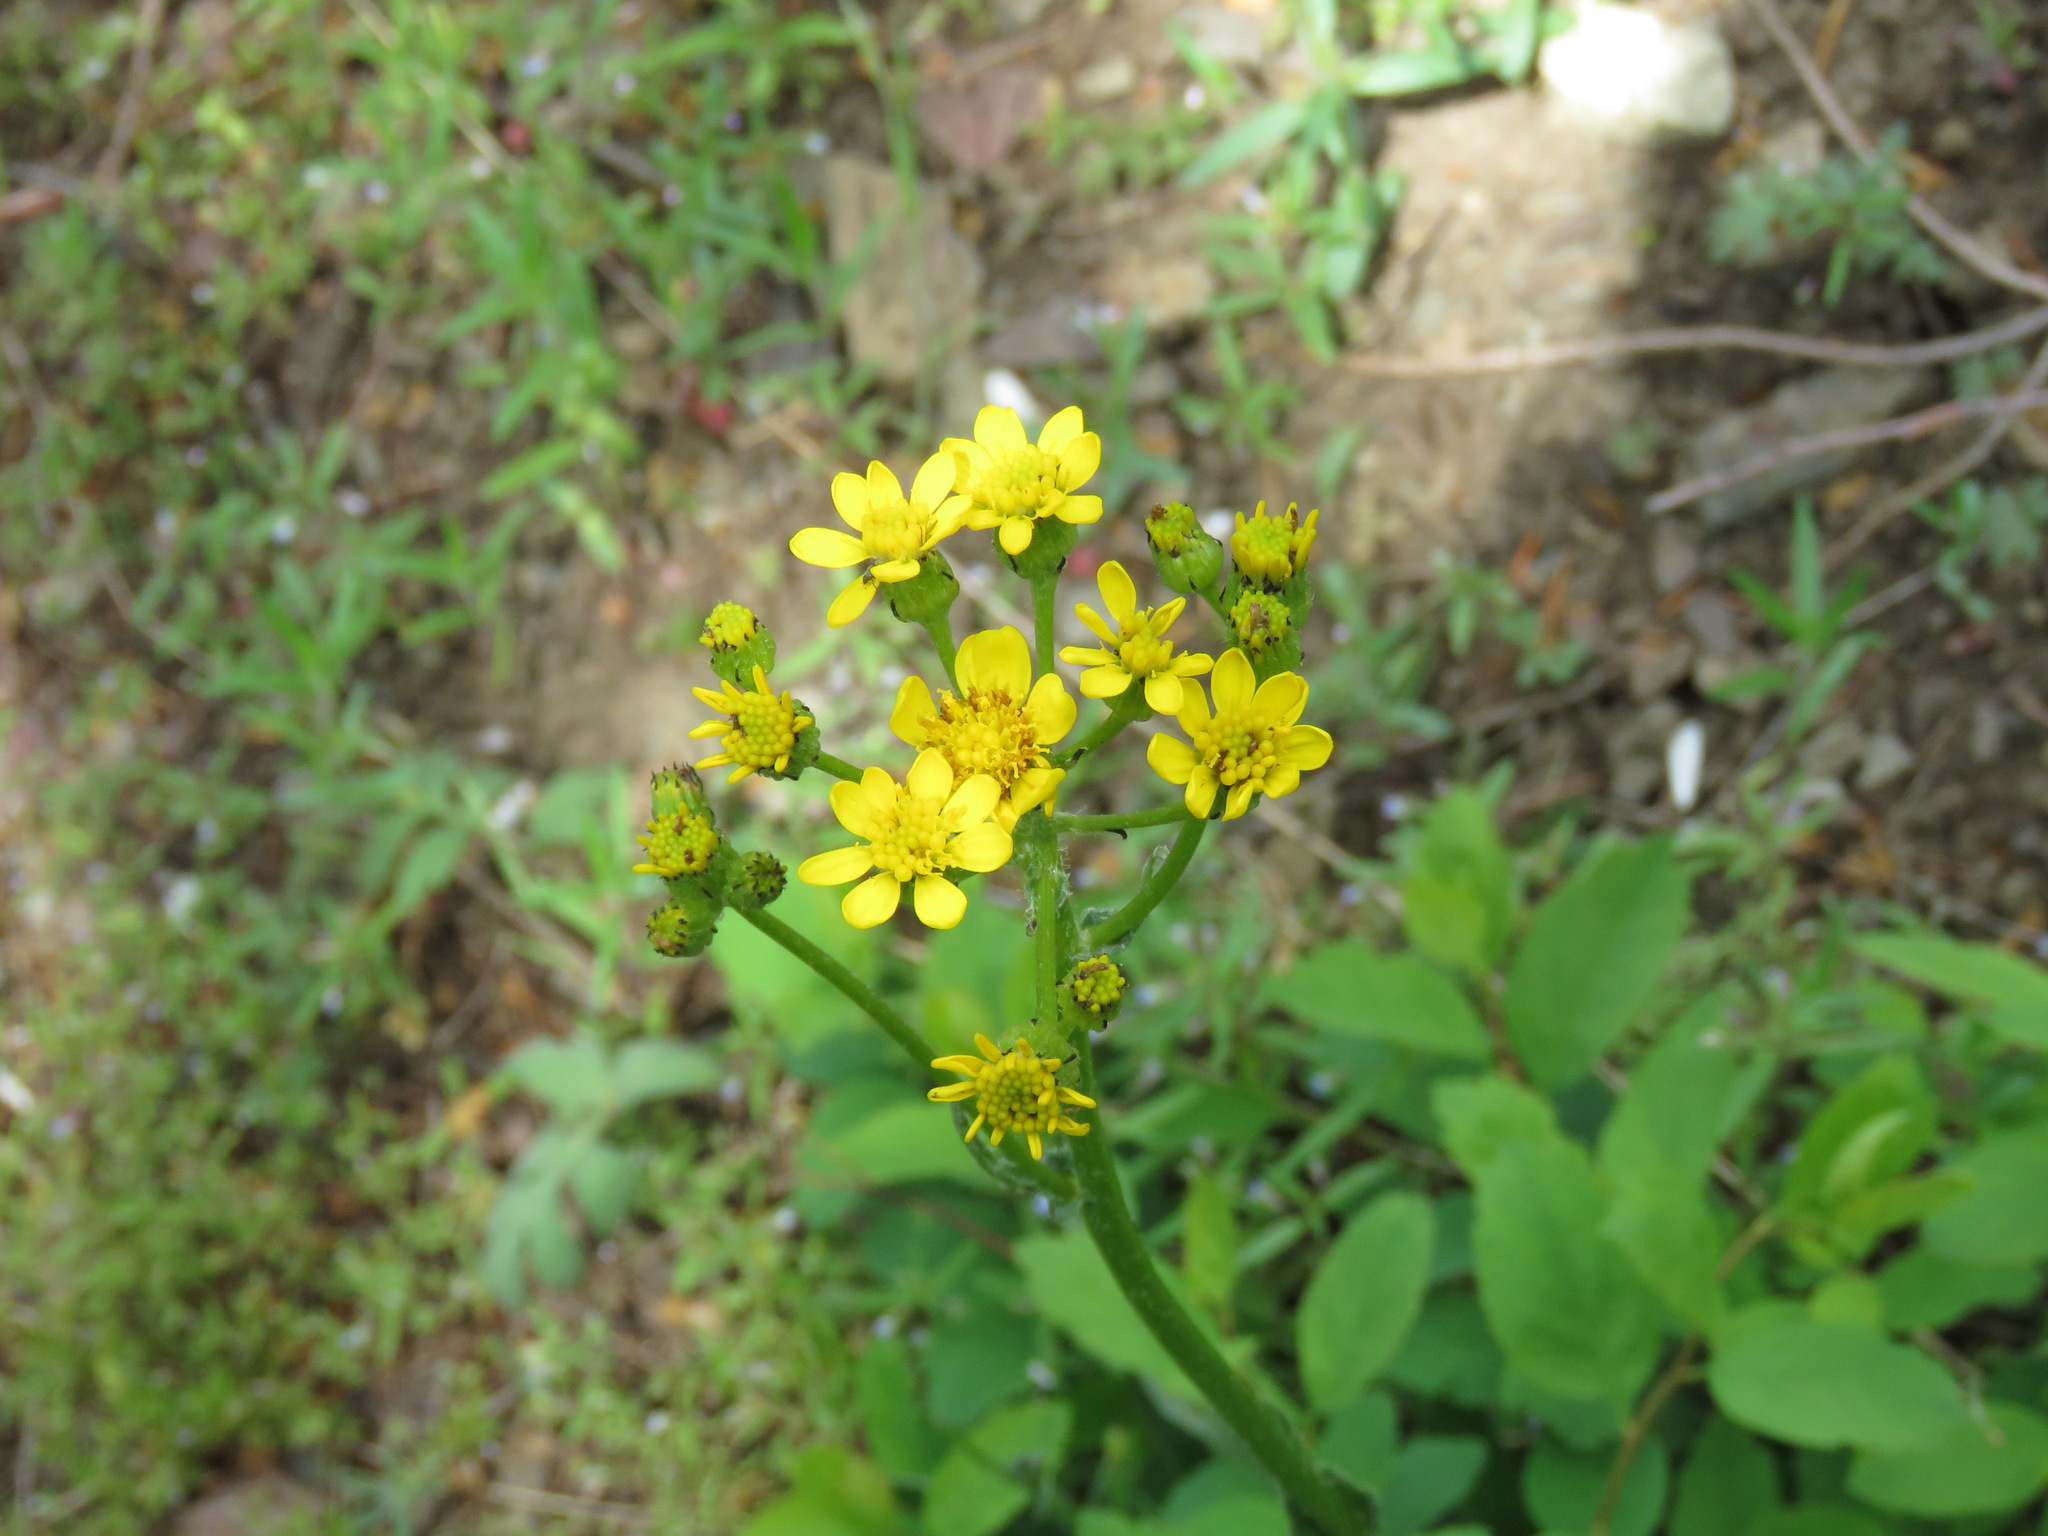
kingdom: Plantae
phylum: Tracheophyta
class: Magnoliopsida
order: Asterales
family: Asteraceae
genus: Senecio
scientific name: Senecio integerrimus
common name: Gaugeplant
